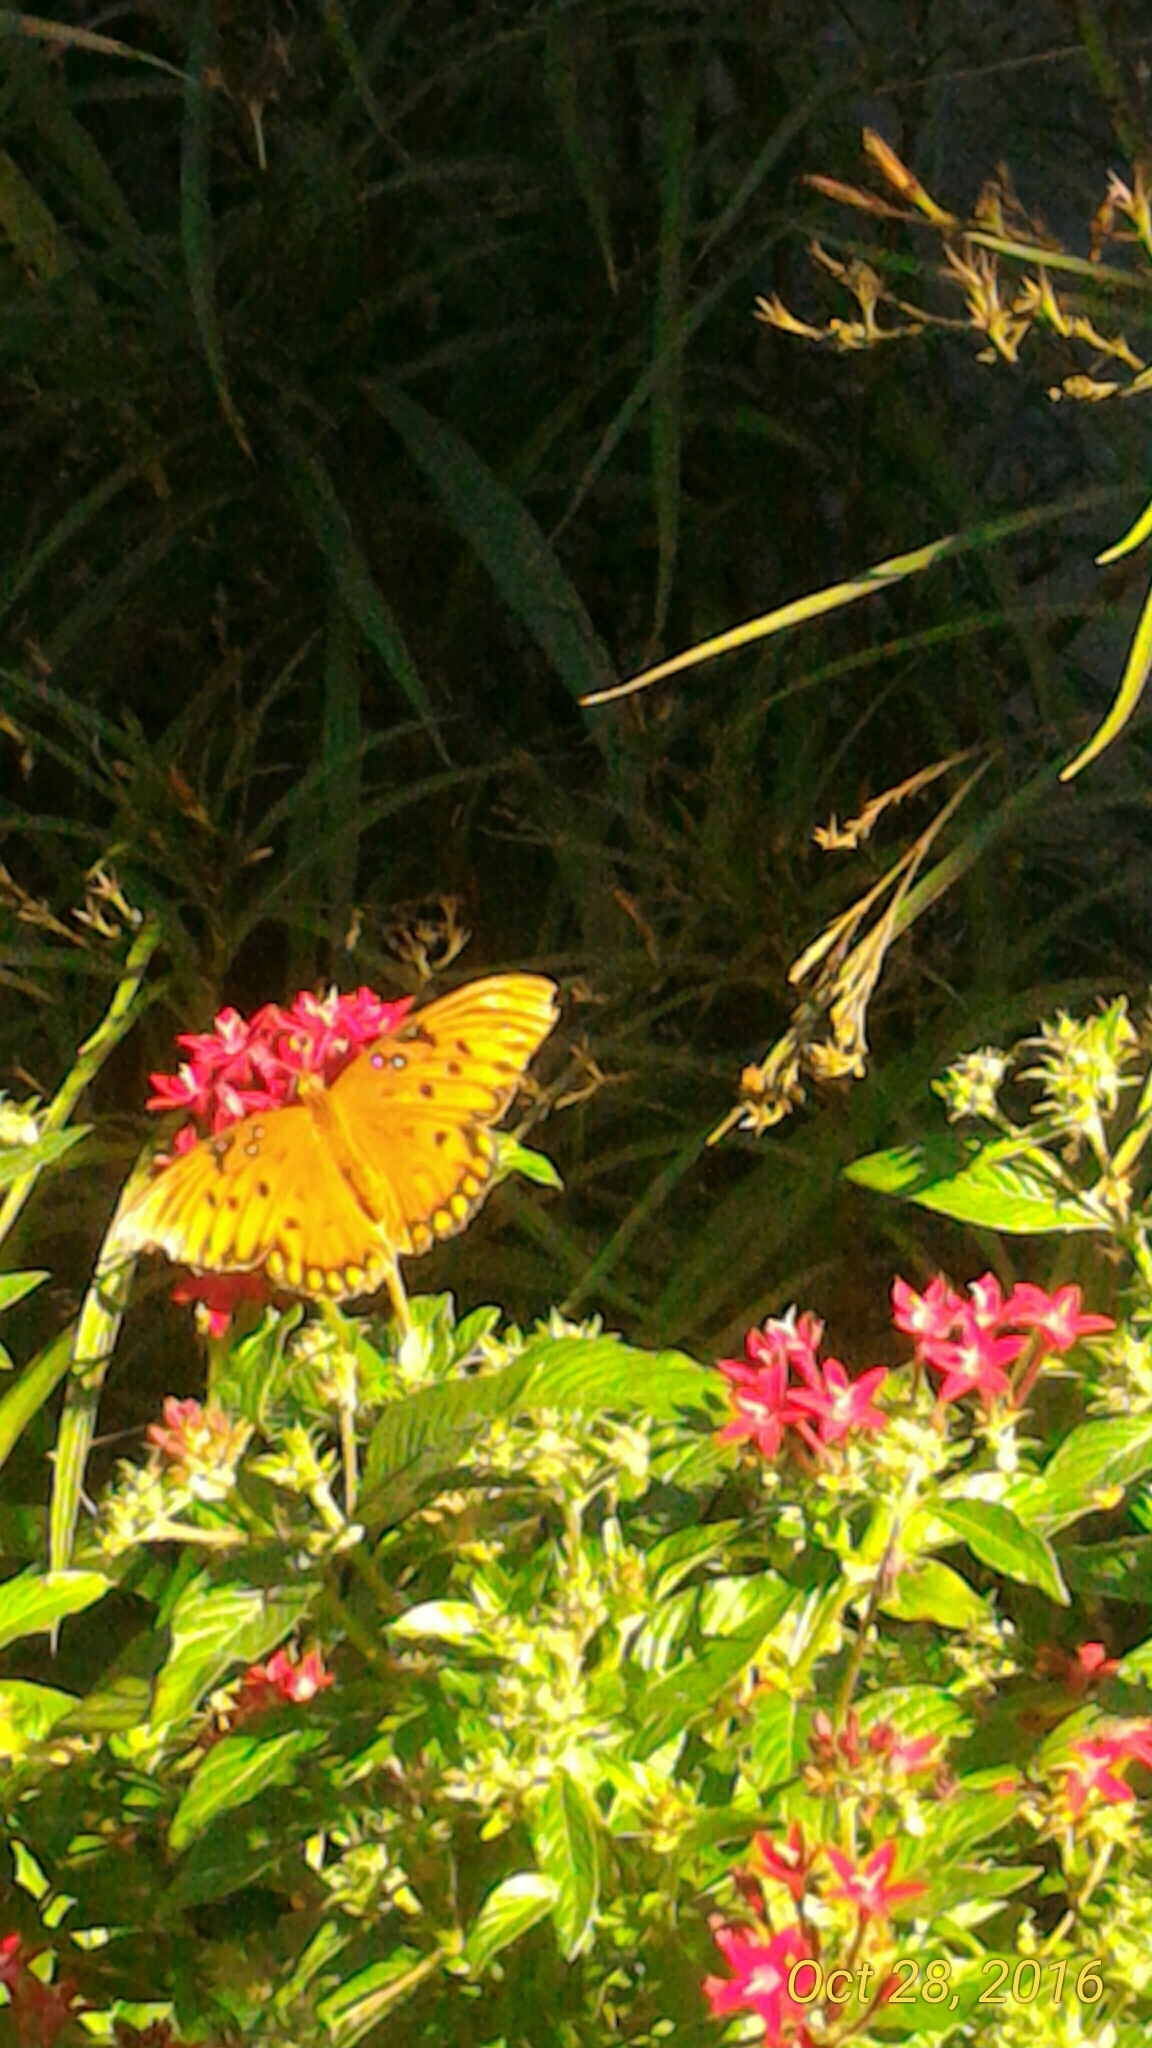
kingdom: Animalia
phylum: Arthropoda
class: Insecta
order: Lepidoptera
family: Nymphalidae
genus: Dione
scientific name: Dione vanillae
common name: Gulf fritillary
